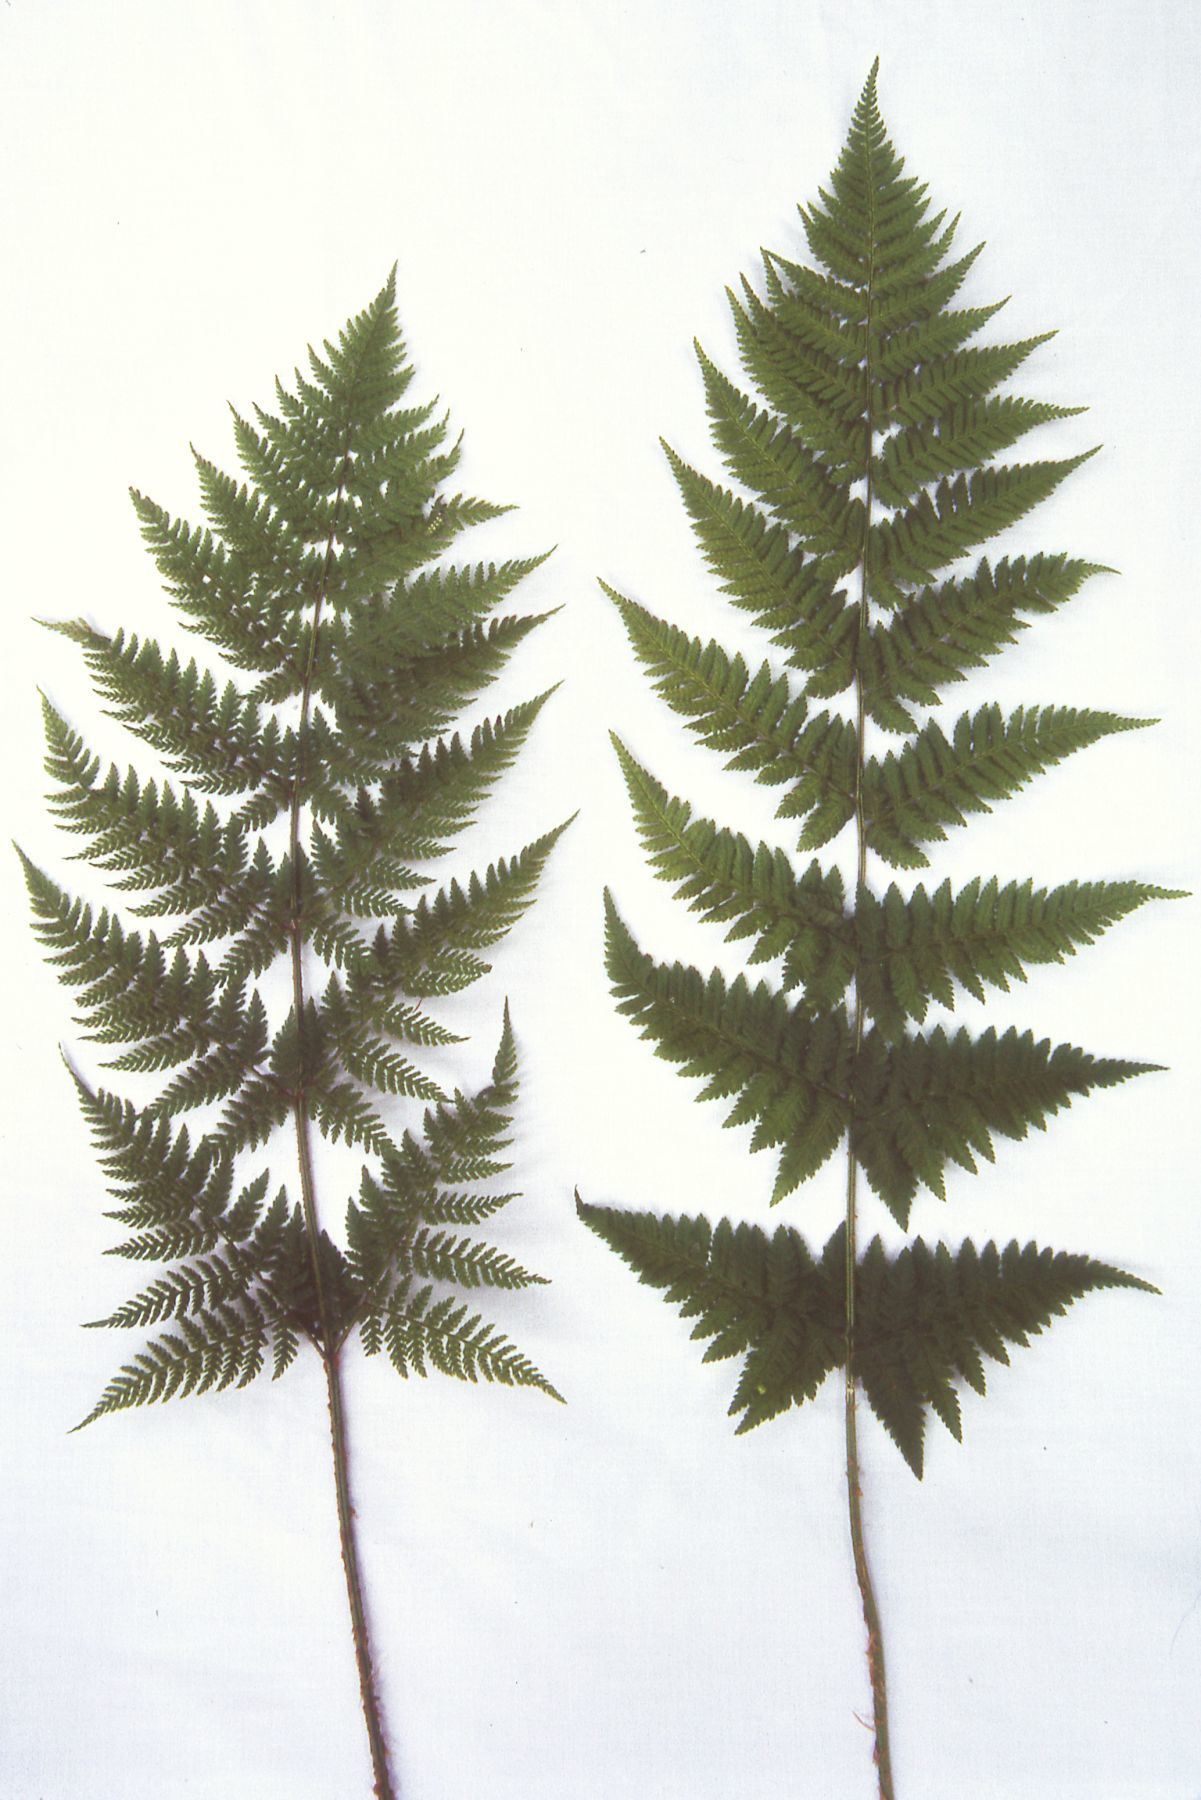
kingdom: Plantae
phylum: Tracheophyta
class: Polypodiopsida
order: Polypodiales
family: Dryopteridaceae
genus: Dryopteris
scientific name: Dryopteris carthusiana
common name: Narrow buckler-fern
